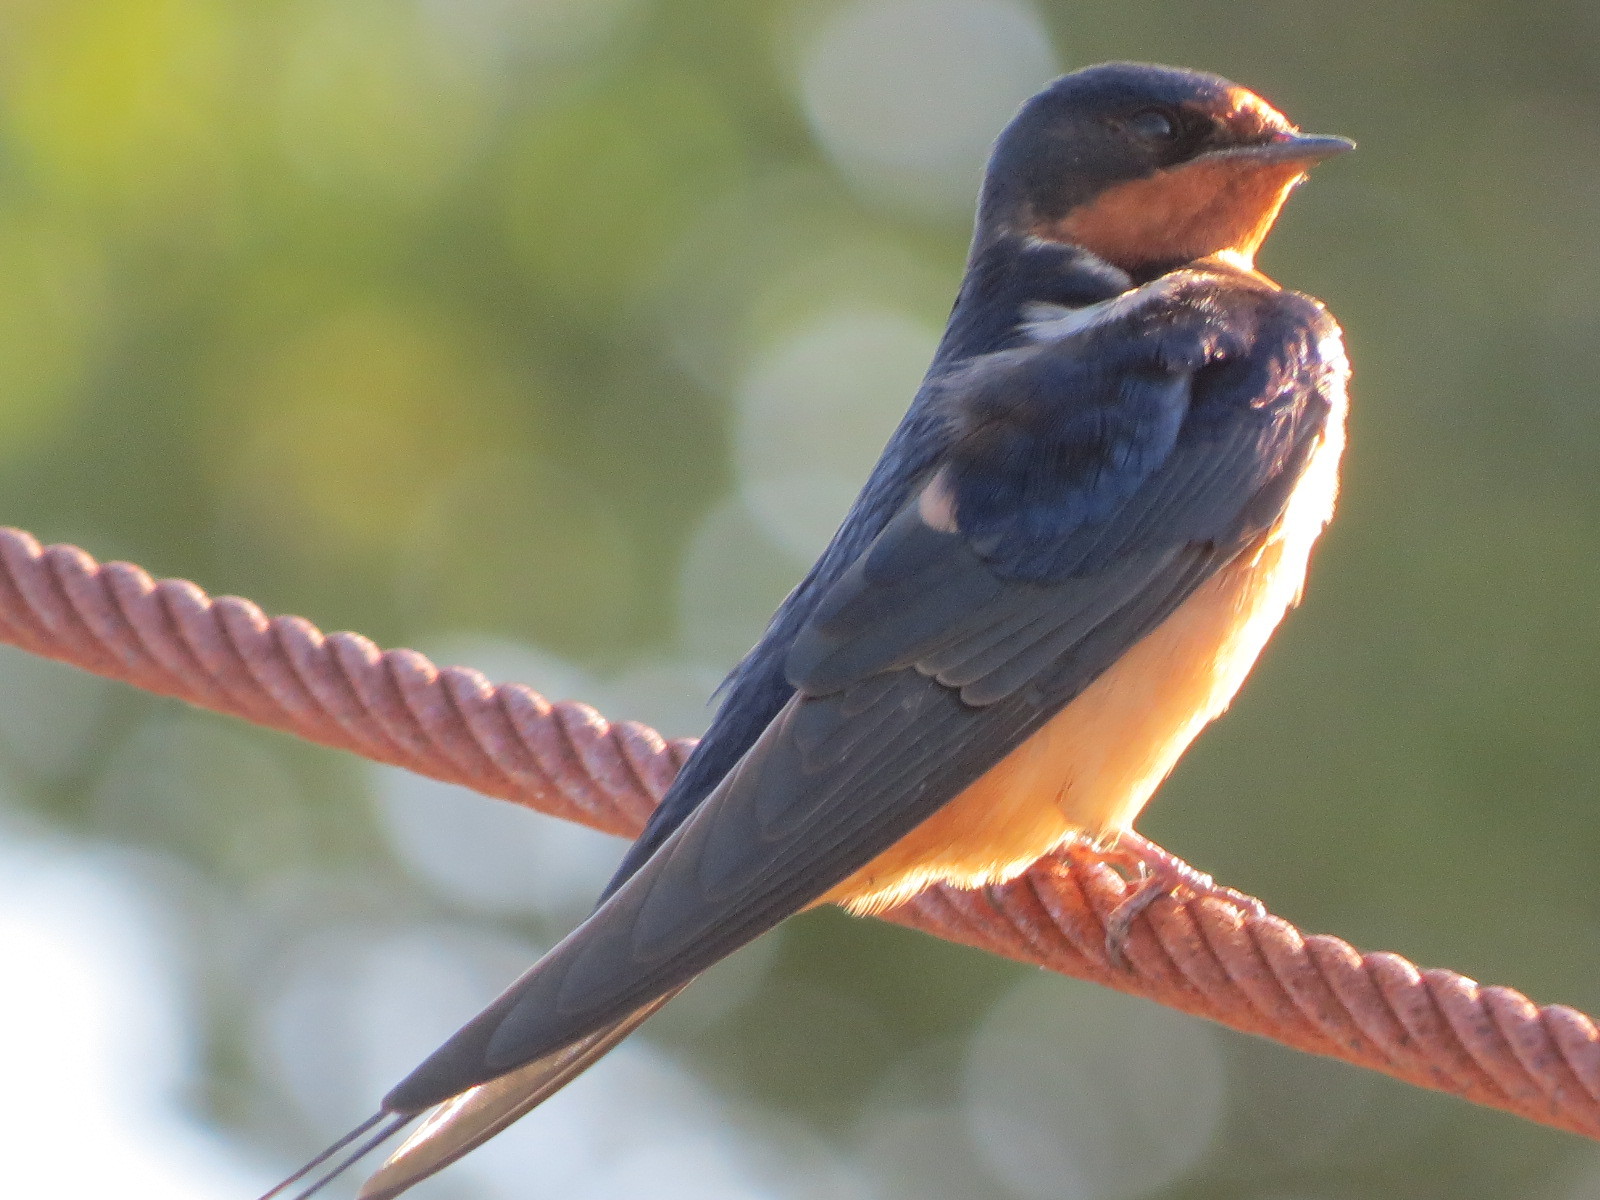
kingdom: Animalia
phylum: Chordata
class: Aves
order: Passeriformes
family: Hirundinidae
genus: Hirundo
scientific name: Hirundo rustica
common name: Barn swallow
